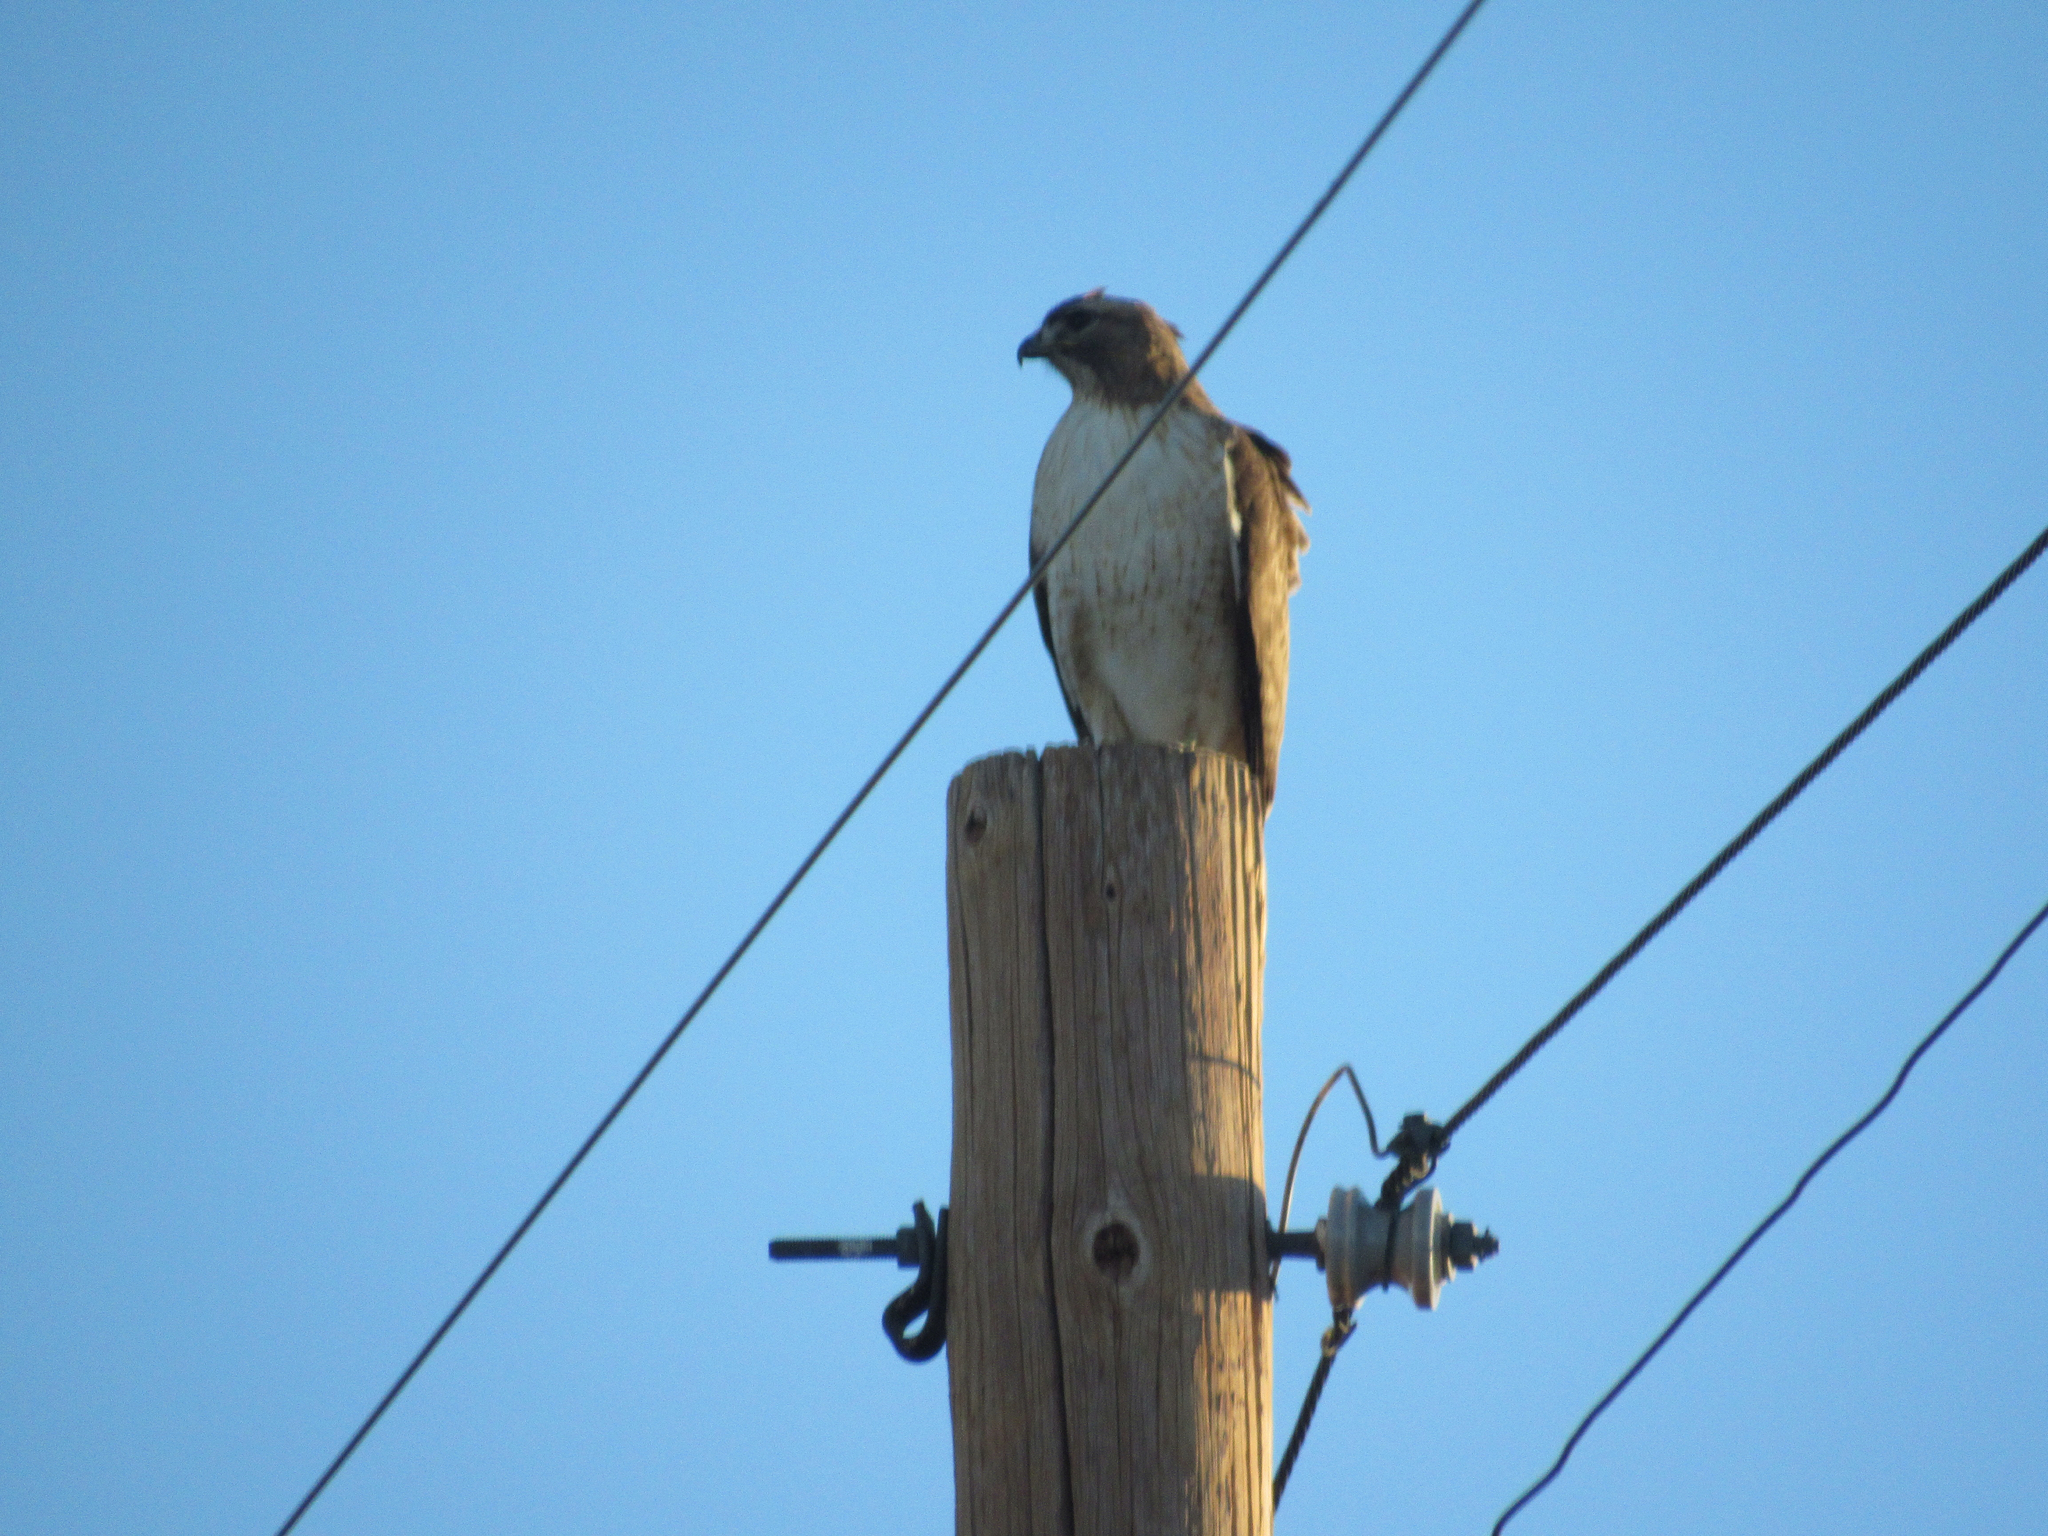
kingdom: Animalia
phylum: Chordata
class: Aves
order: Accipitriformes
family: Accipitridae
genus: Buteo
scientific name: Buteo jamaicensis
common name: Red-tailed hawk
